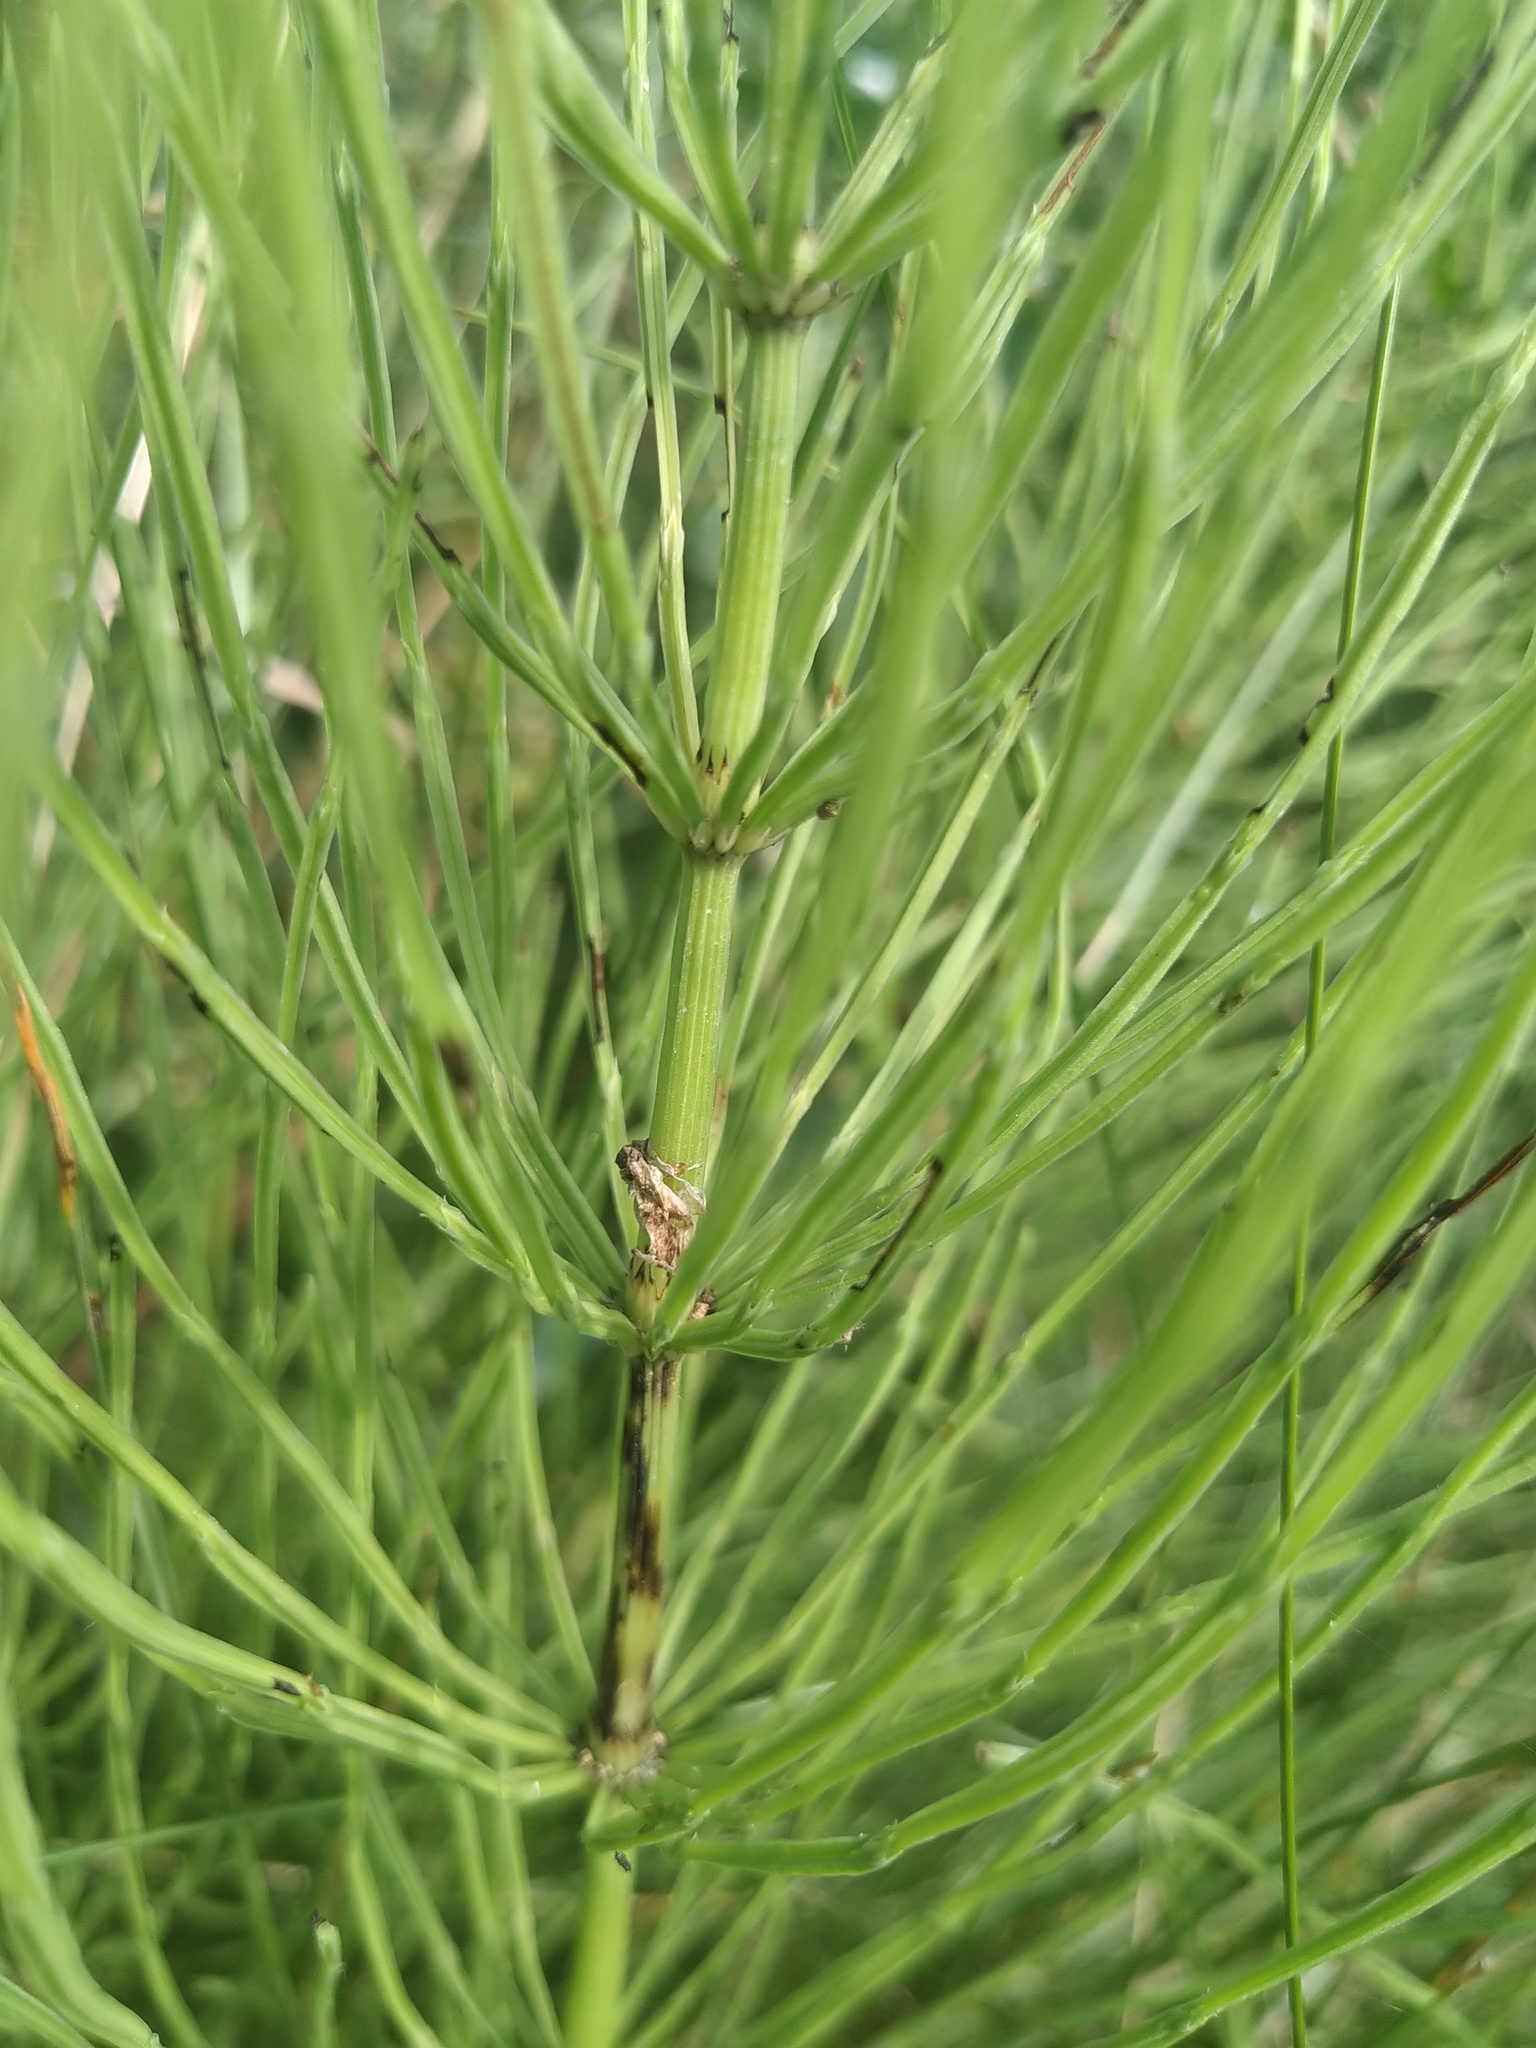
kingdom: Plantae
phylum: Tracheophyta
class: Polypodiopsida
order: Equisetales
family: Equisetaceae
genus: Equisetum
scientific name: Equisetum arvense
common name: Field horsetail
